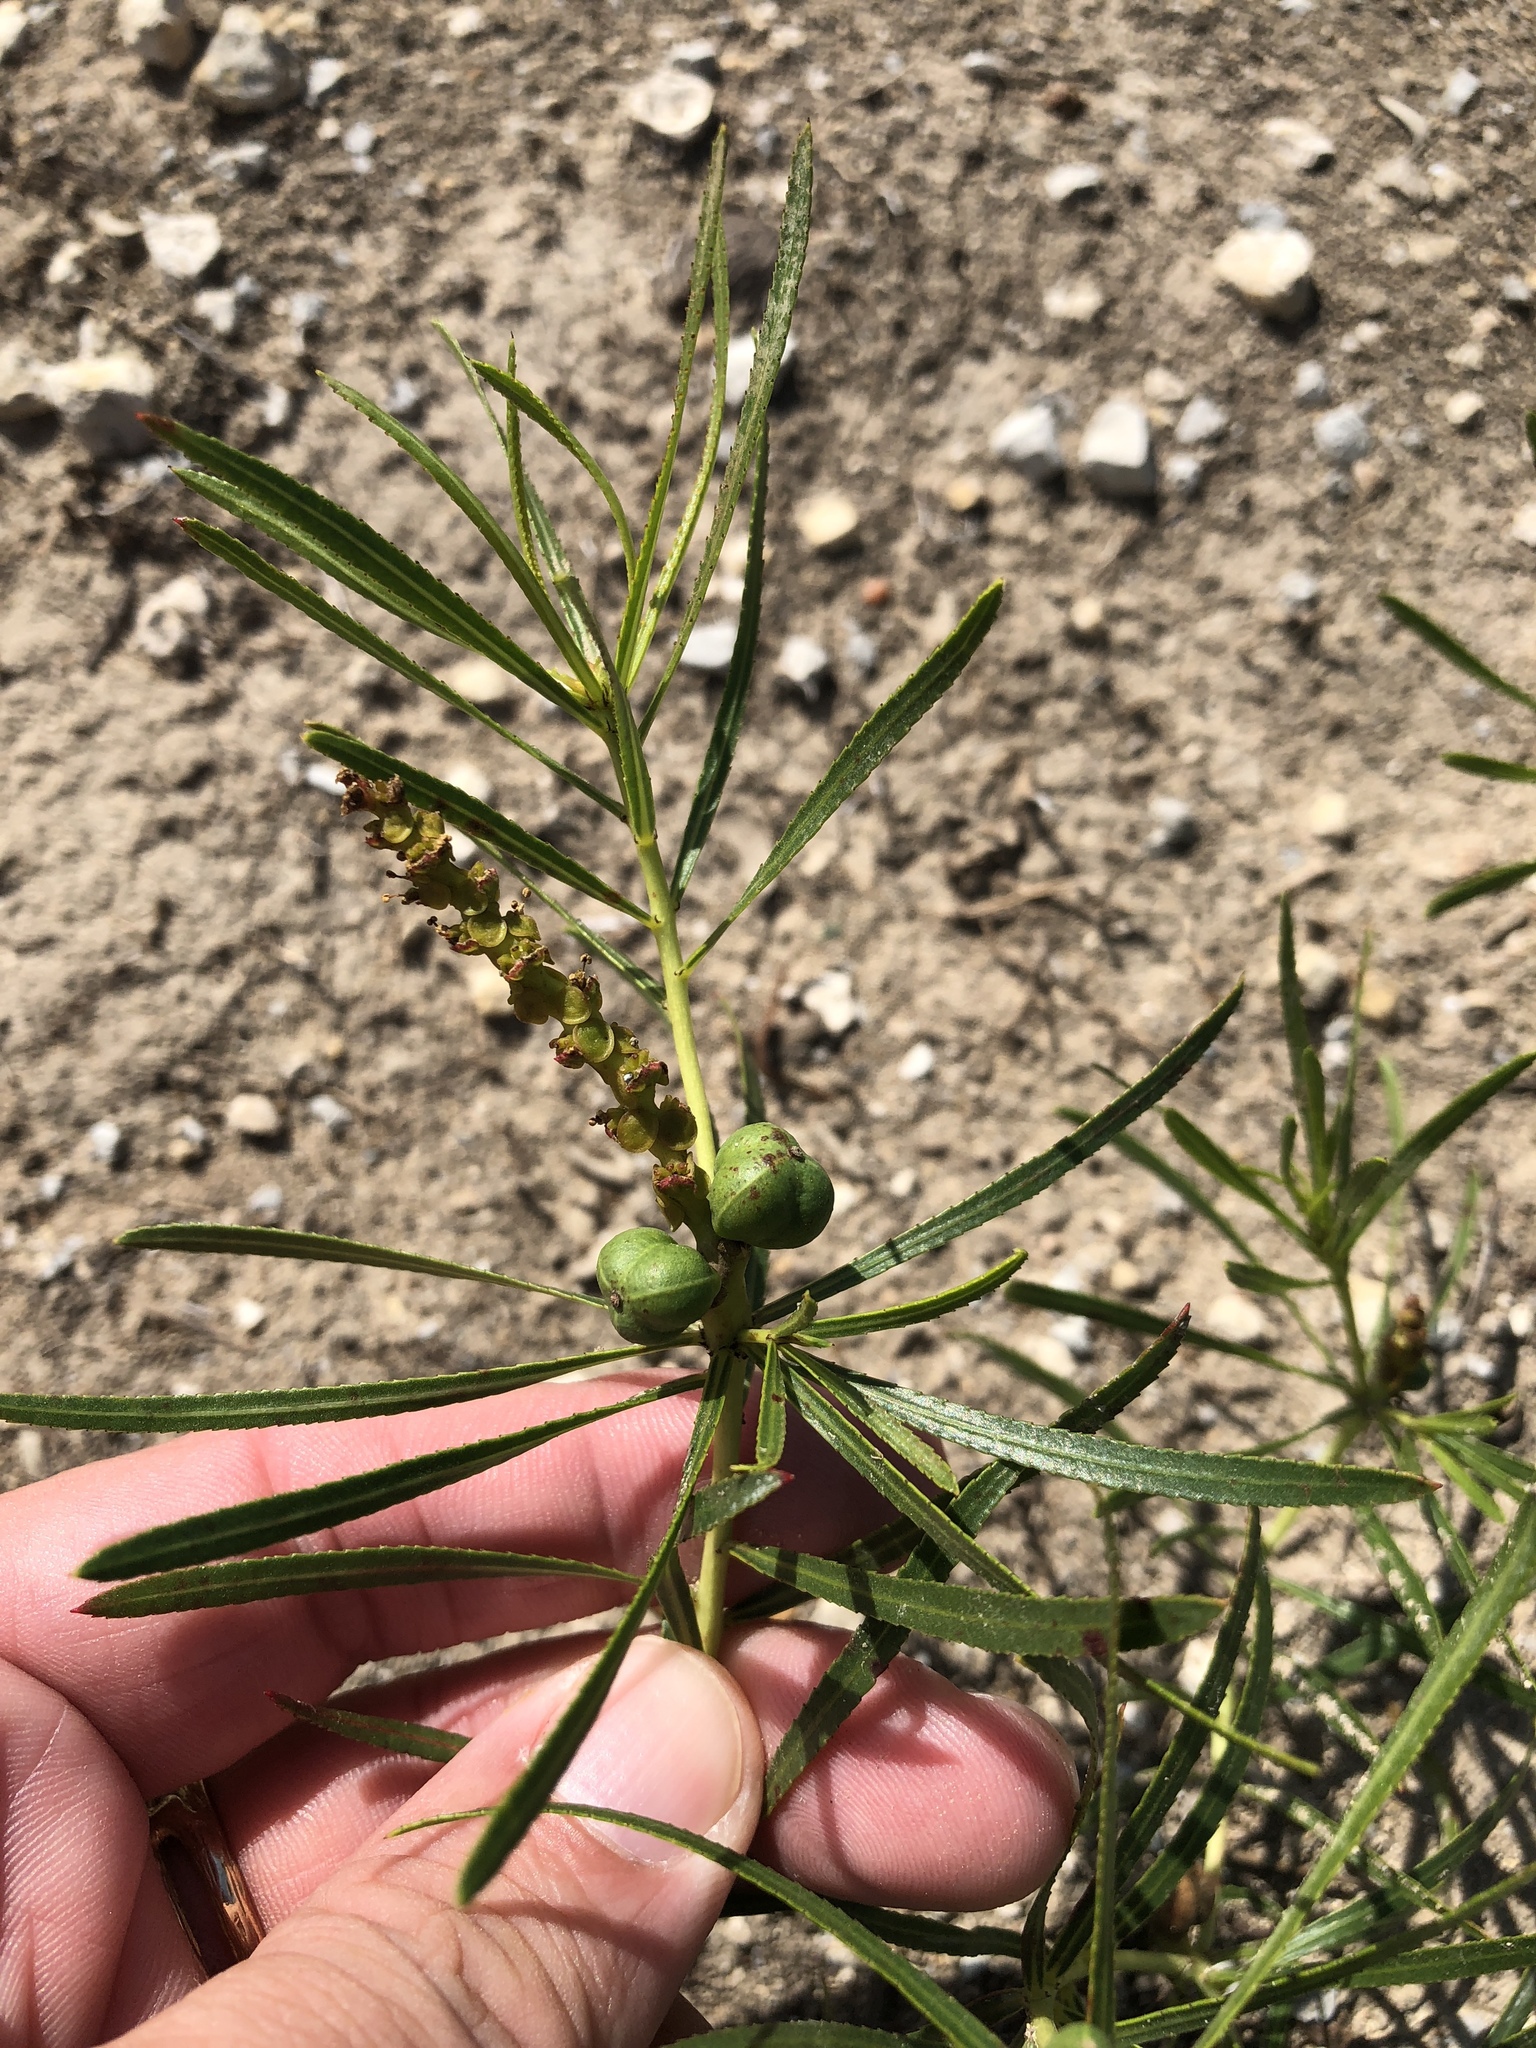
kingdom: Plantae
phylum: Tracheophyta
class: Magnoliopsida
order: Malpighiales
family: Euphorbiaceae
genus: Stillingia
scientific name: Stillingia texana
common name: Texas stillingia
